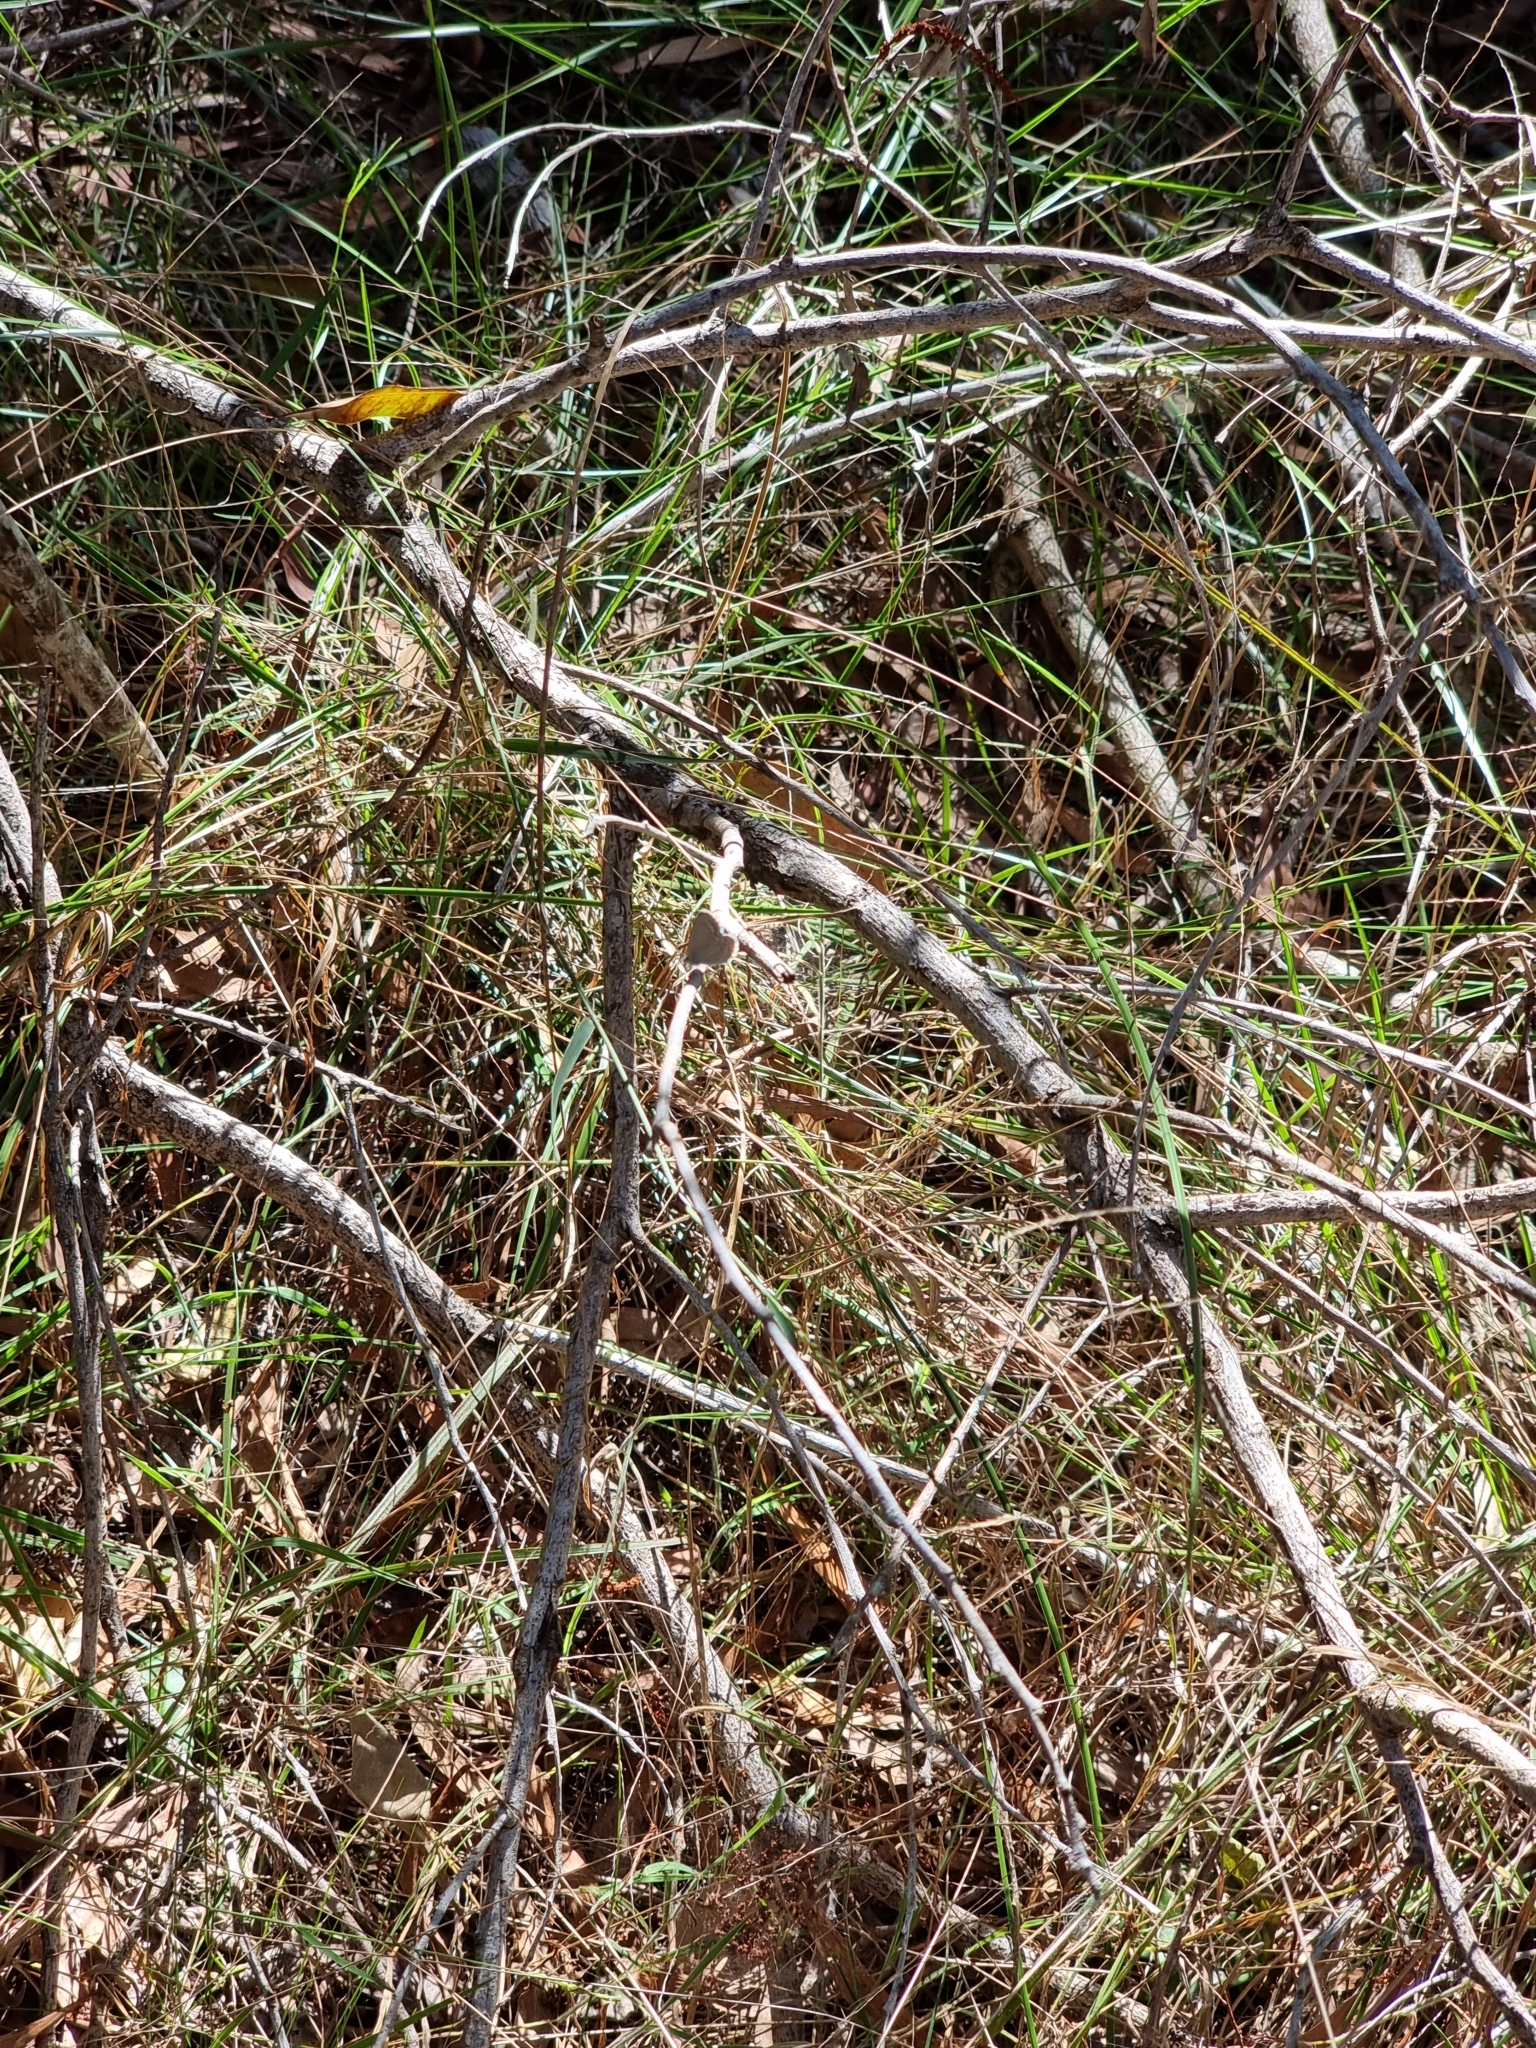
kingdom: Animalia
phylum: Arthropoda
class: Insecta
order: Lepidoptera
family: Lycaenidae
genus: Zizina
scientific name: Zizina otis
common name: Lesser grass blue
